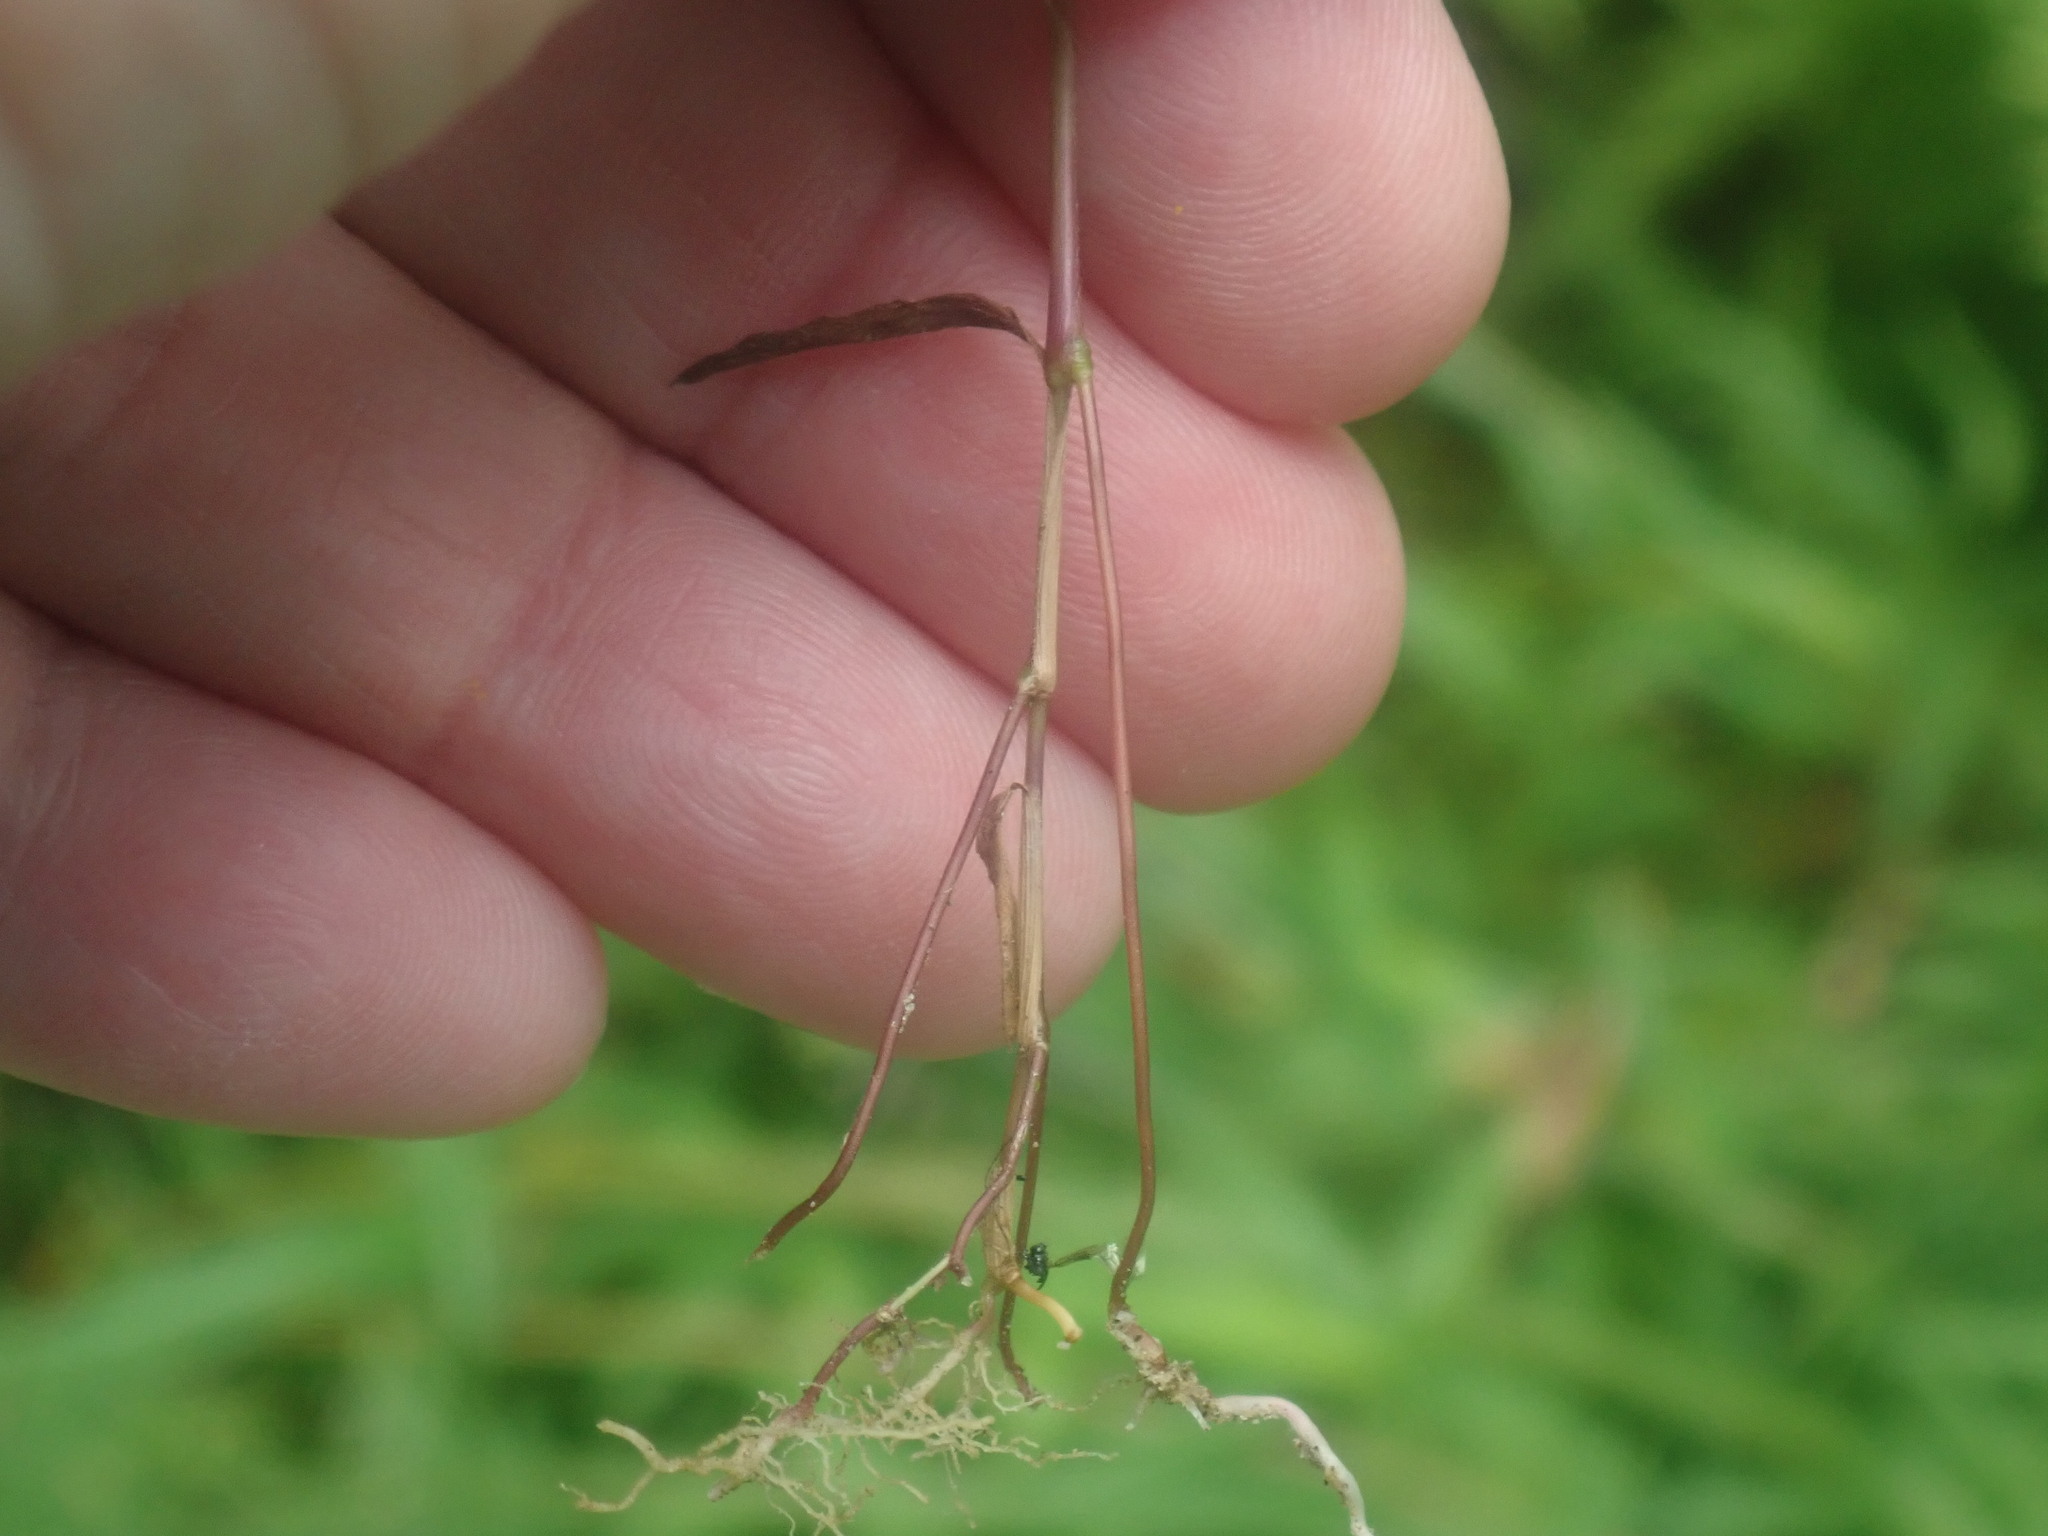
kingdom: Plantae
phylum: Tracheophyta
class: Liliopsida
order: Poales
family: Poaceae
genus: Microstegium
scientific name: Microstegium vimineum
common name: Japanese stiltgrass
